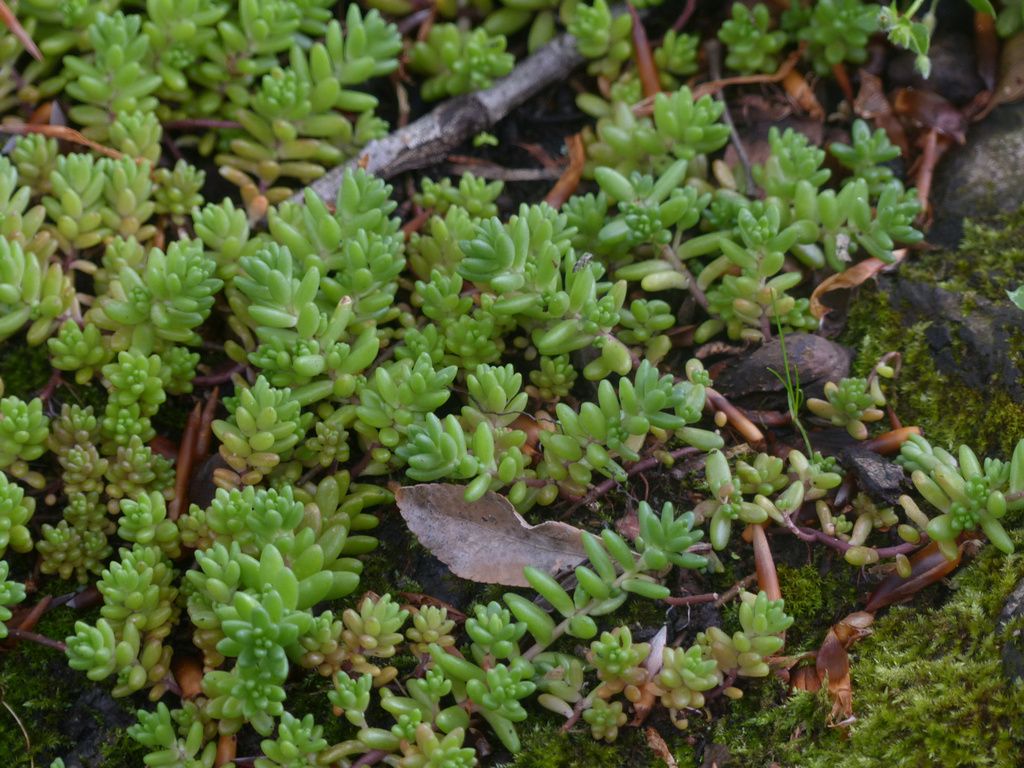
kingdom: Plantae
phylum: Tracheophyta
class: Magnoliopsida
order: Saxifragales
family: Crassulaceae
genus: Sedum
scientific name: Sedum album
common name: White stonecrop
